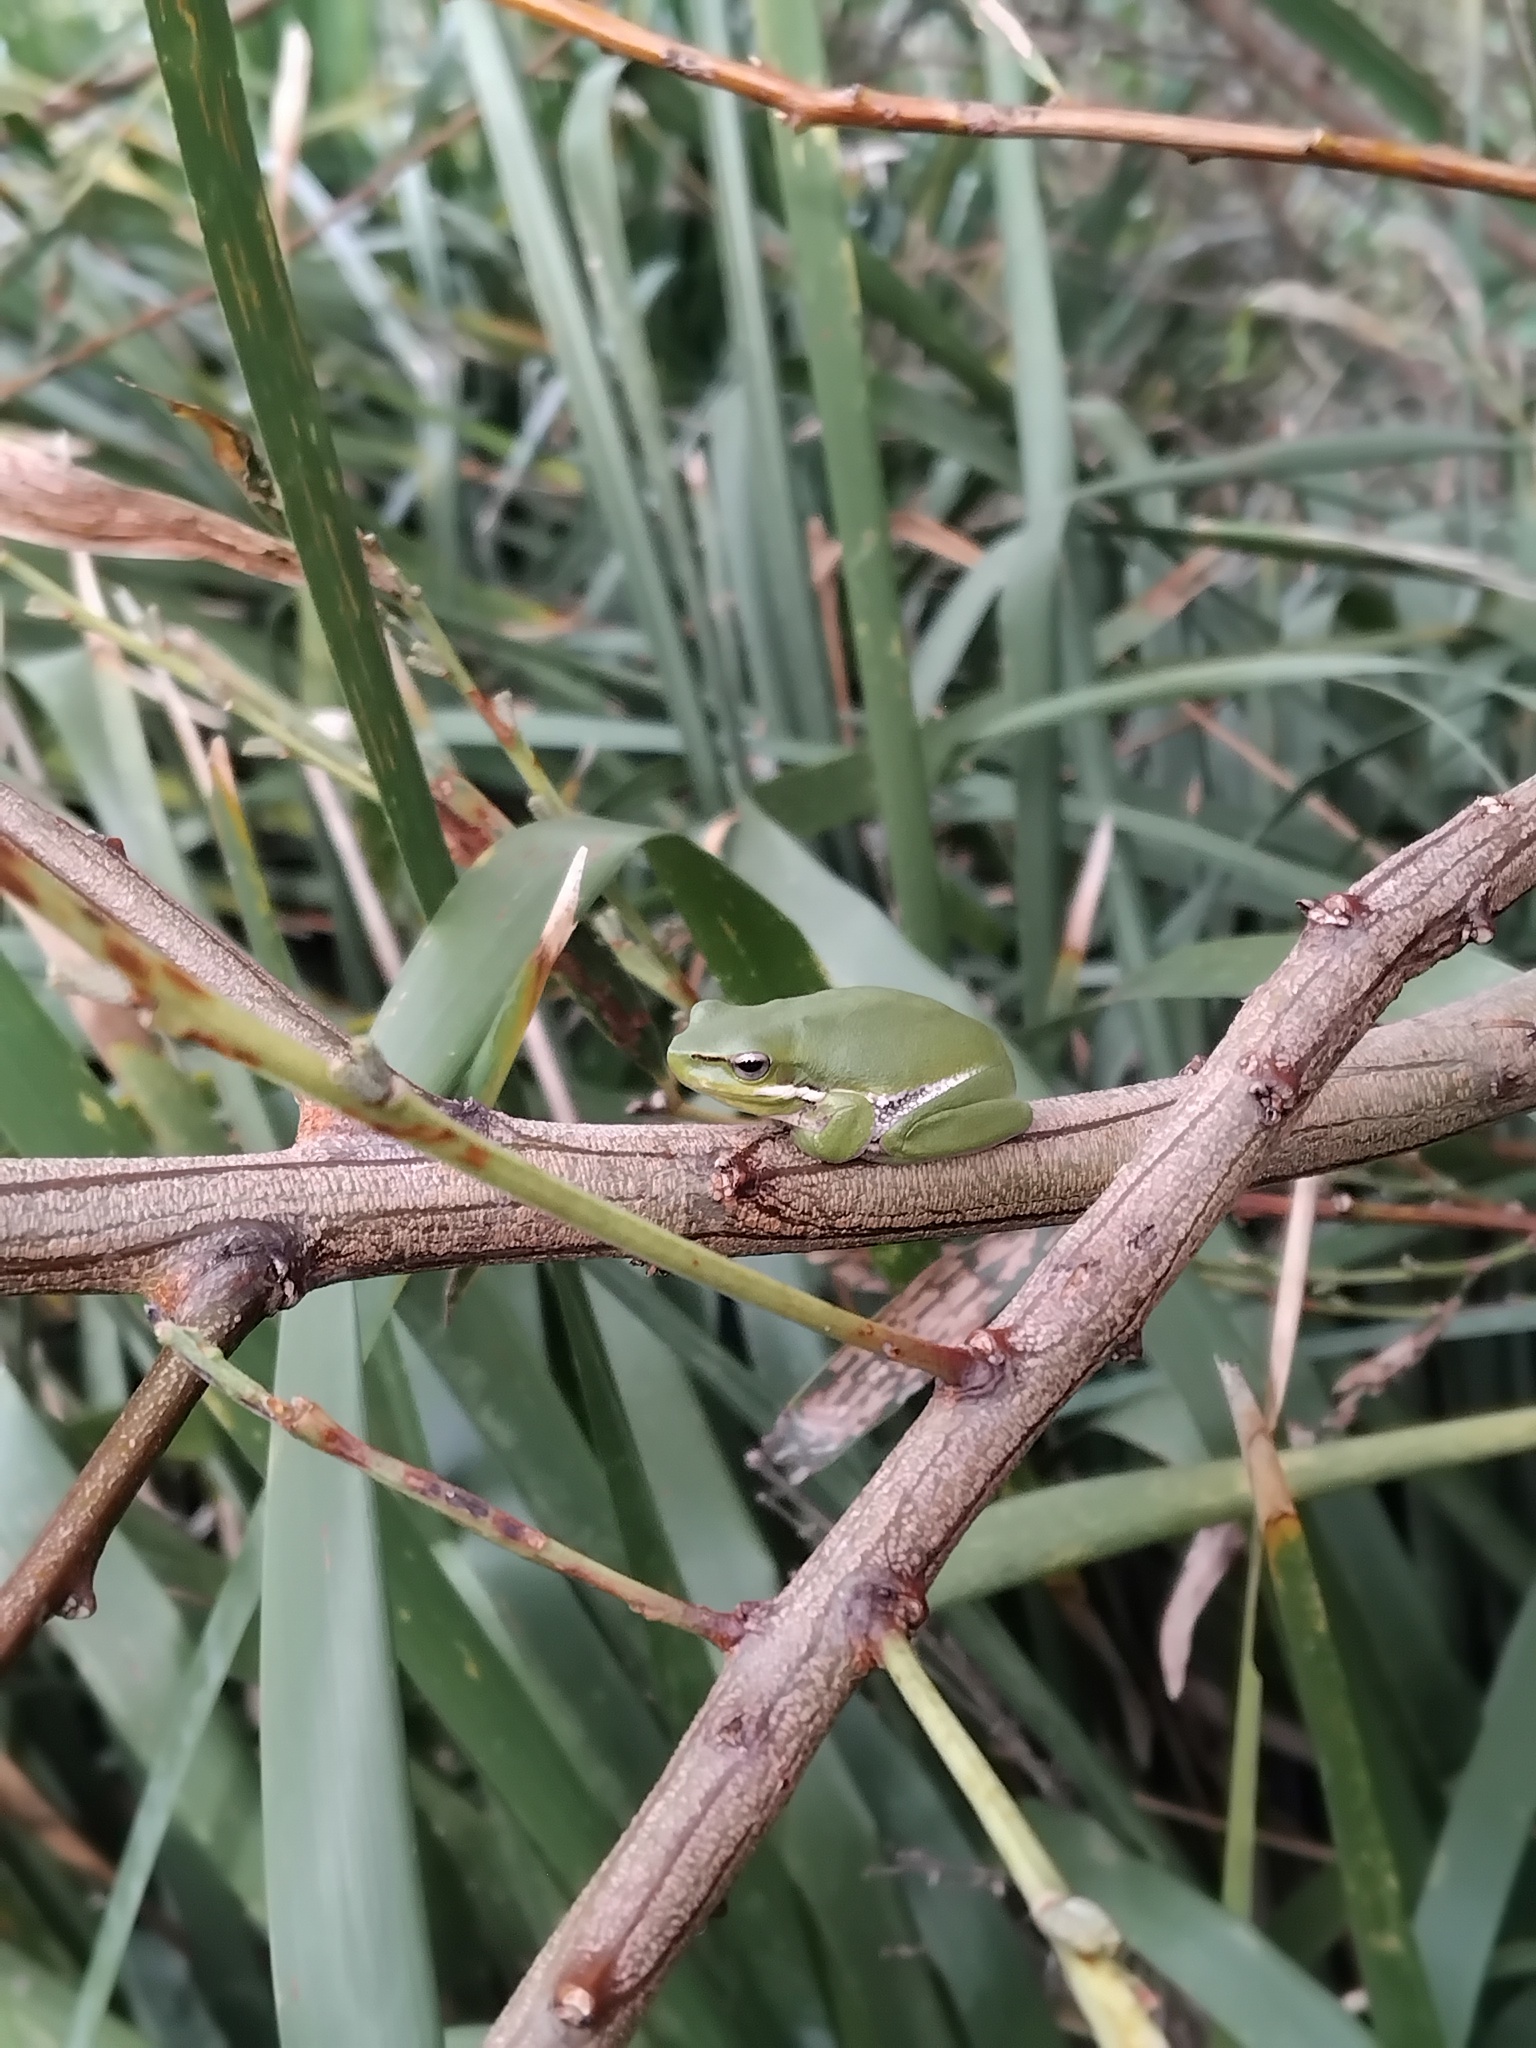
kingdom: Animalia
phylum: Chordata
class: Amphibia
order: Anura
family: Pelodryadidae
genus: Litoria
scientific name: Litoria fallax
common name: Eastern dwarf treefrog
